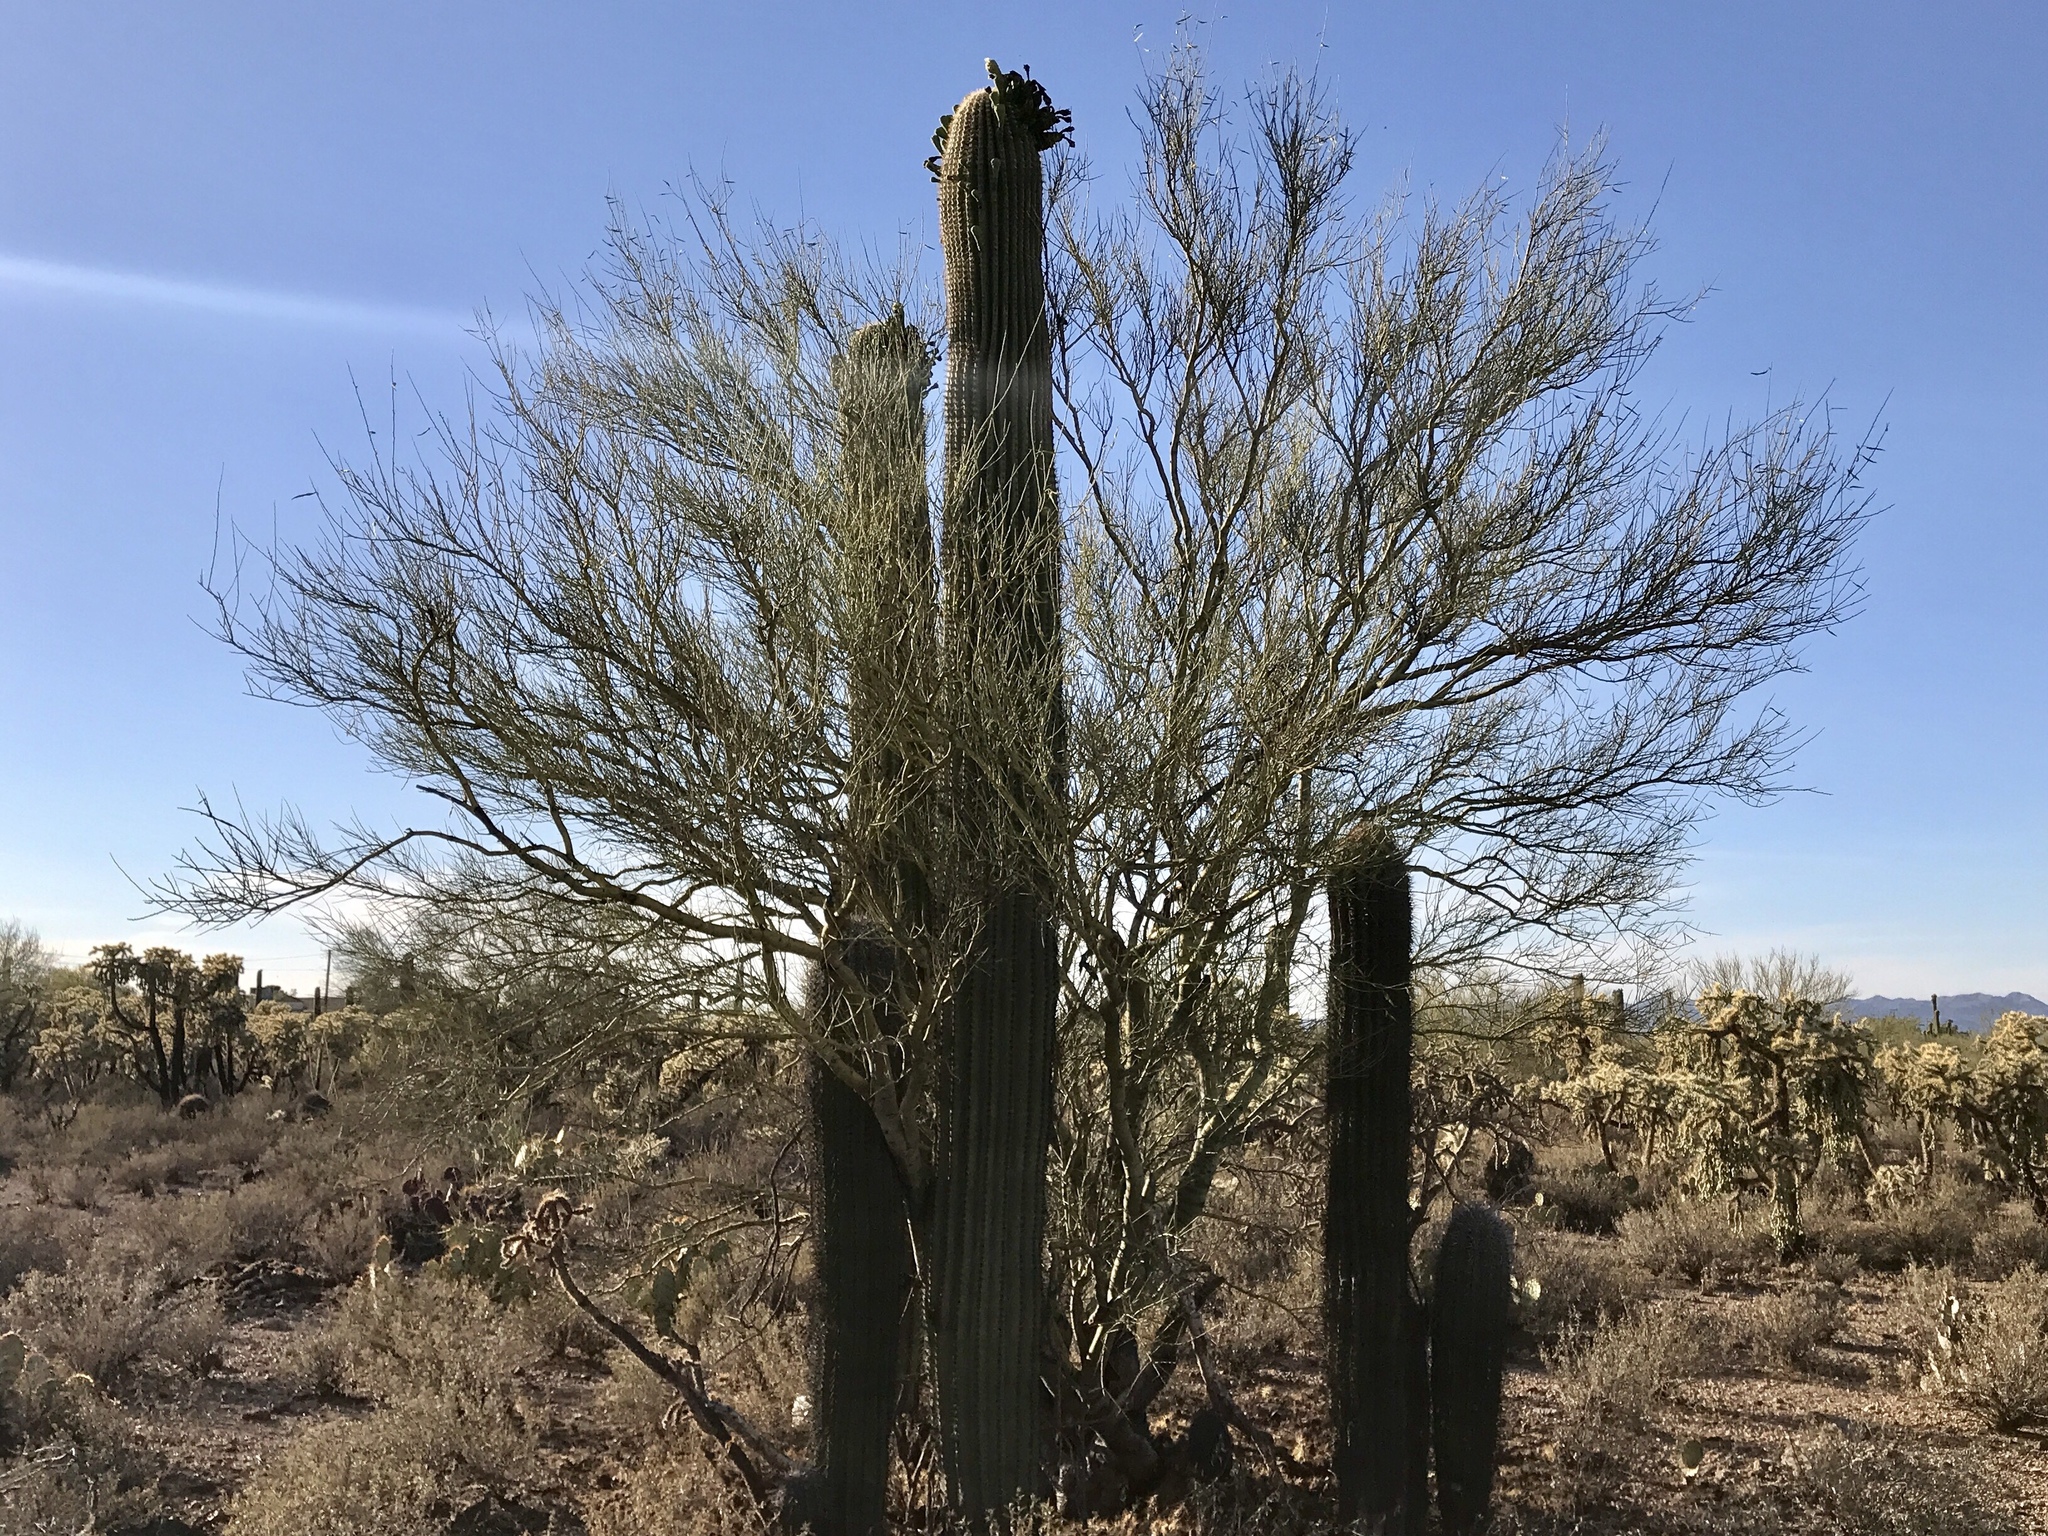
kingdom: Plantae
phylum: Tracheophyta
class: Magnoliopsida
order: Fabales
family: Fabaceae
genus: Parkinsonia
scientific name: Parkinsonia microphylla
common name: Yellow paloverde
